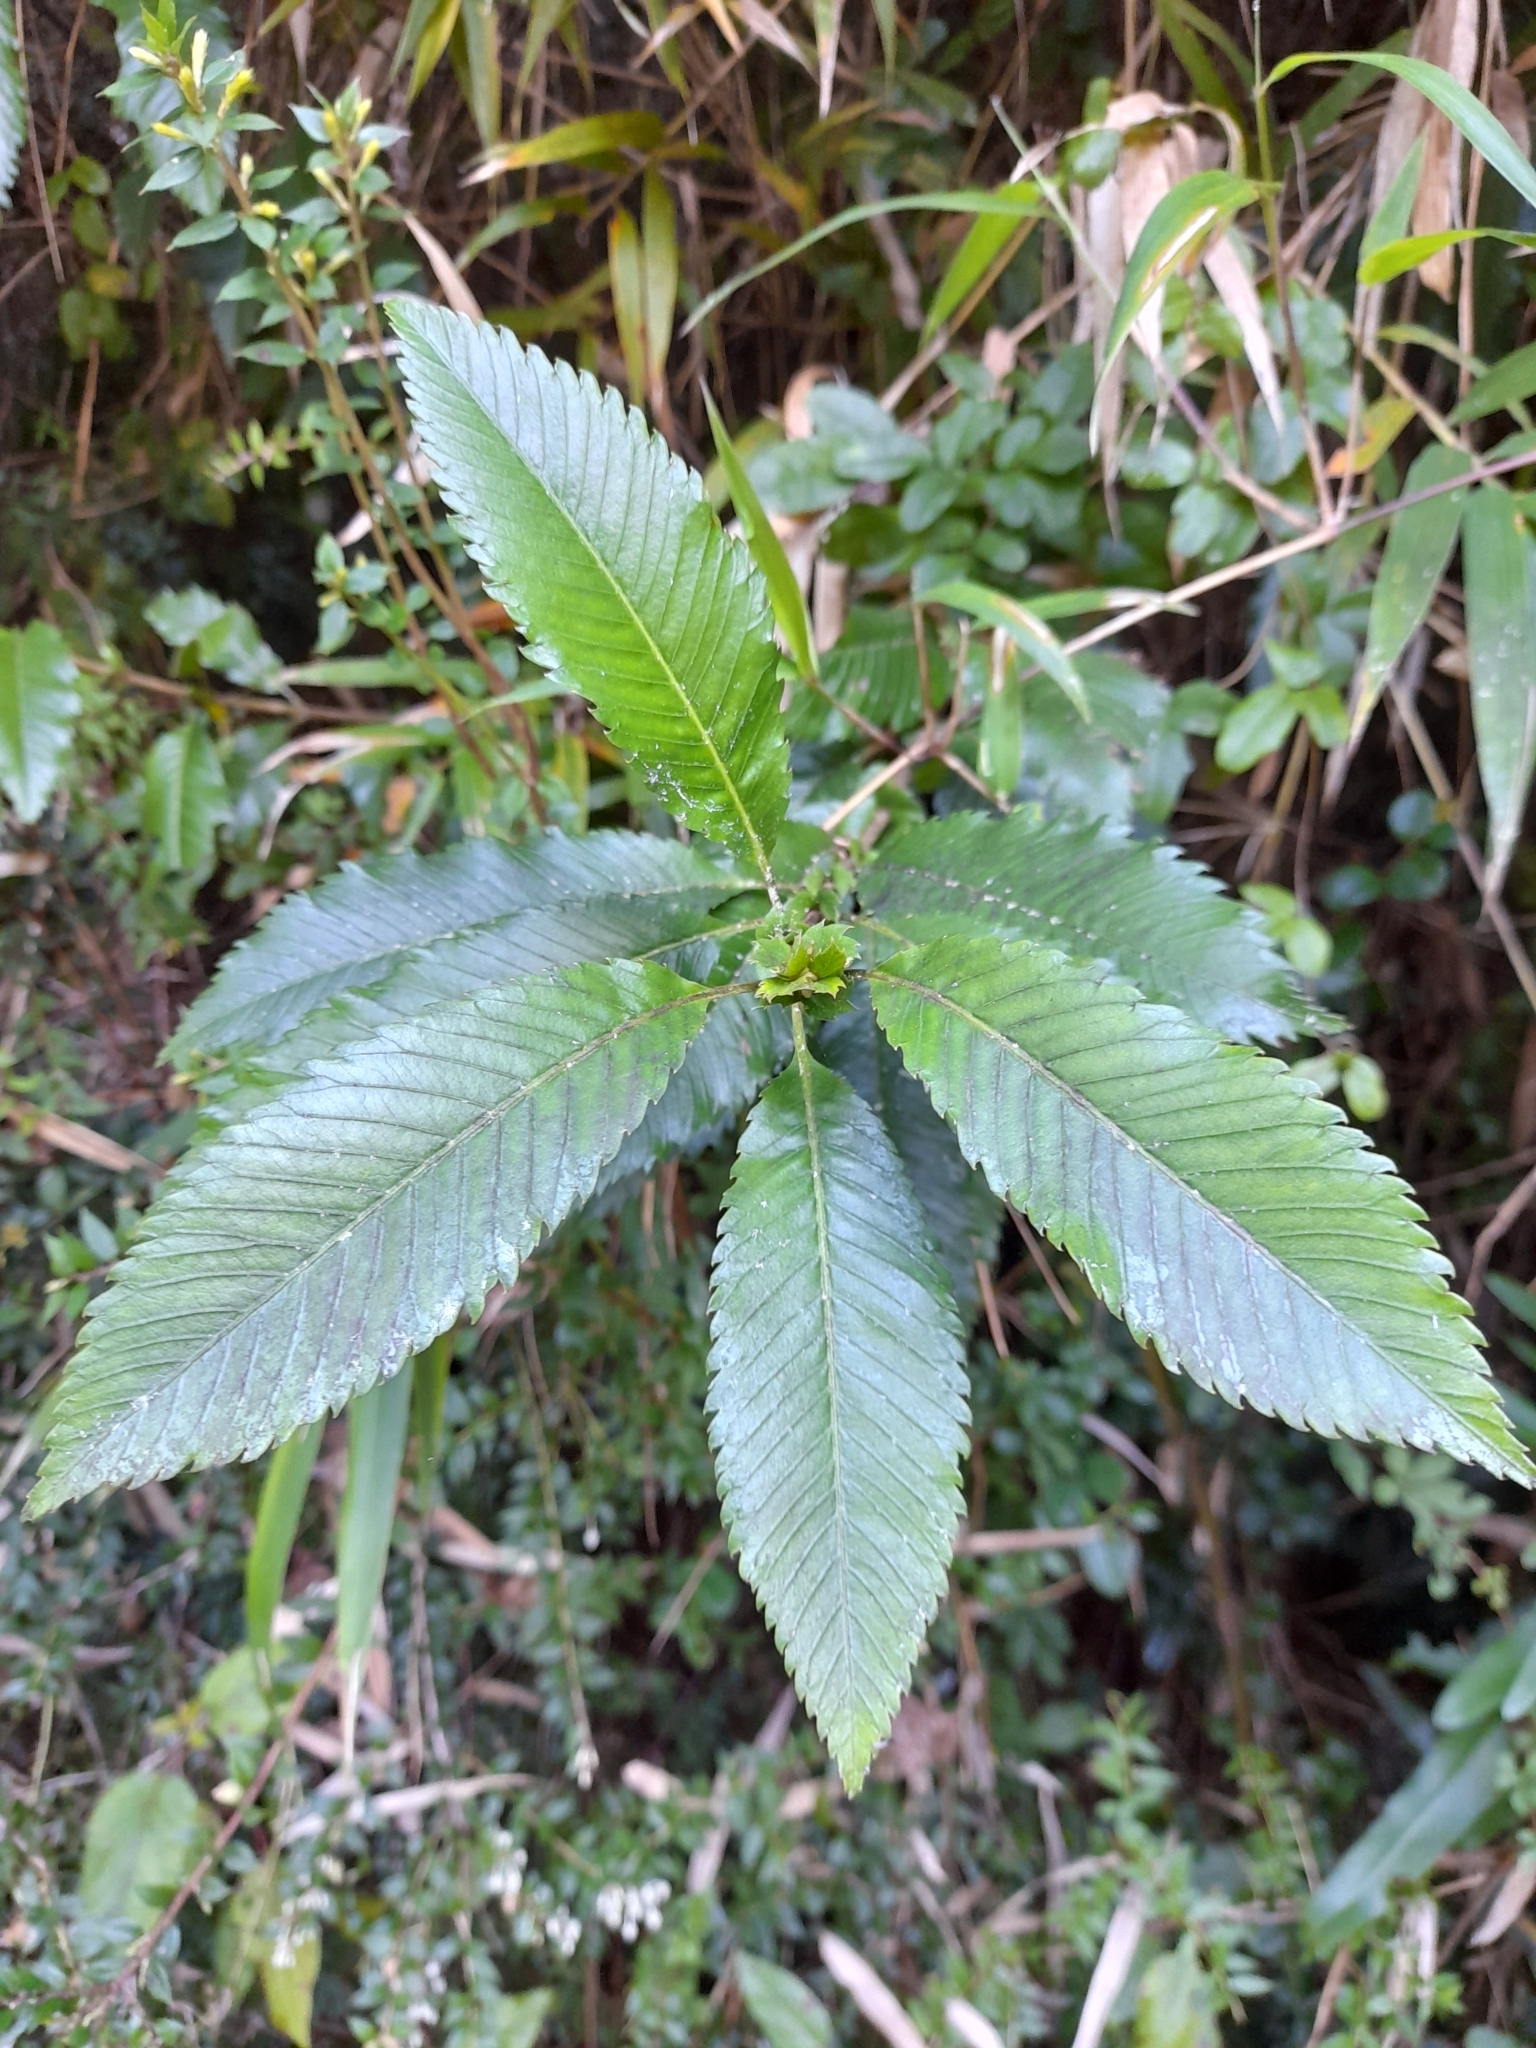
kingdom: Plantae
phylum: Tracheophyta
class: Magnoliopsida
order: Oxalidales
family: Cunoniaceae
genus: Caldcluvia
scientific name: Caldcluvia paniculata
